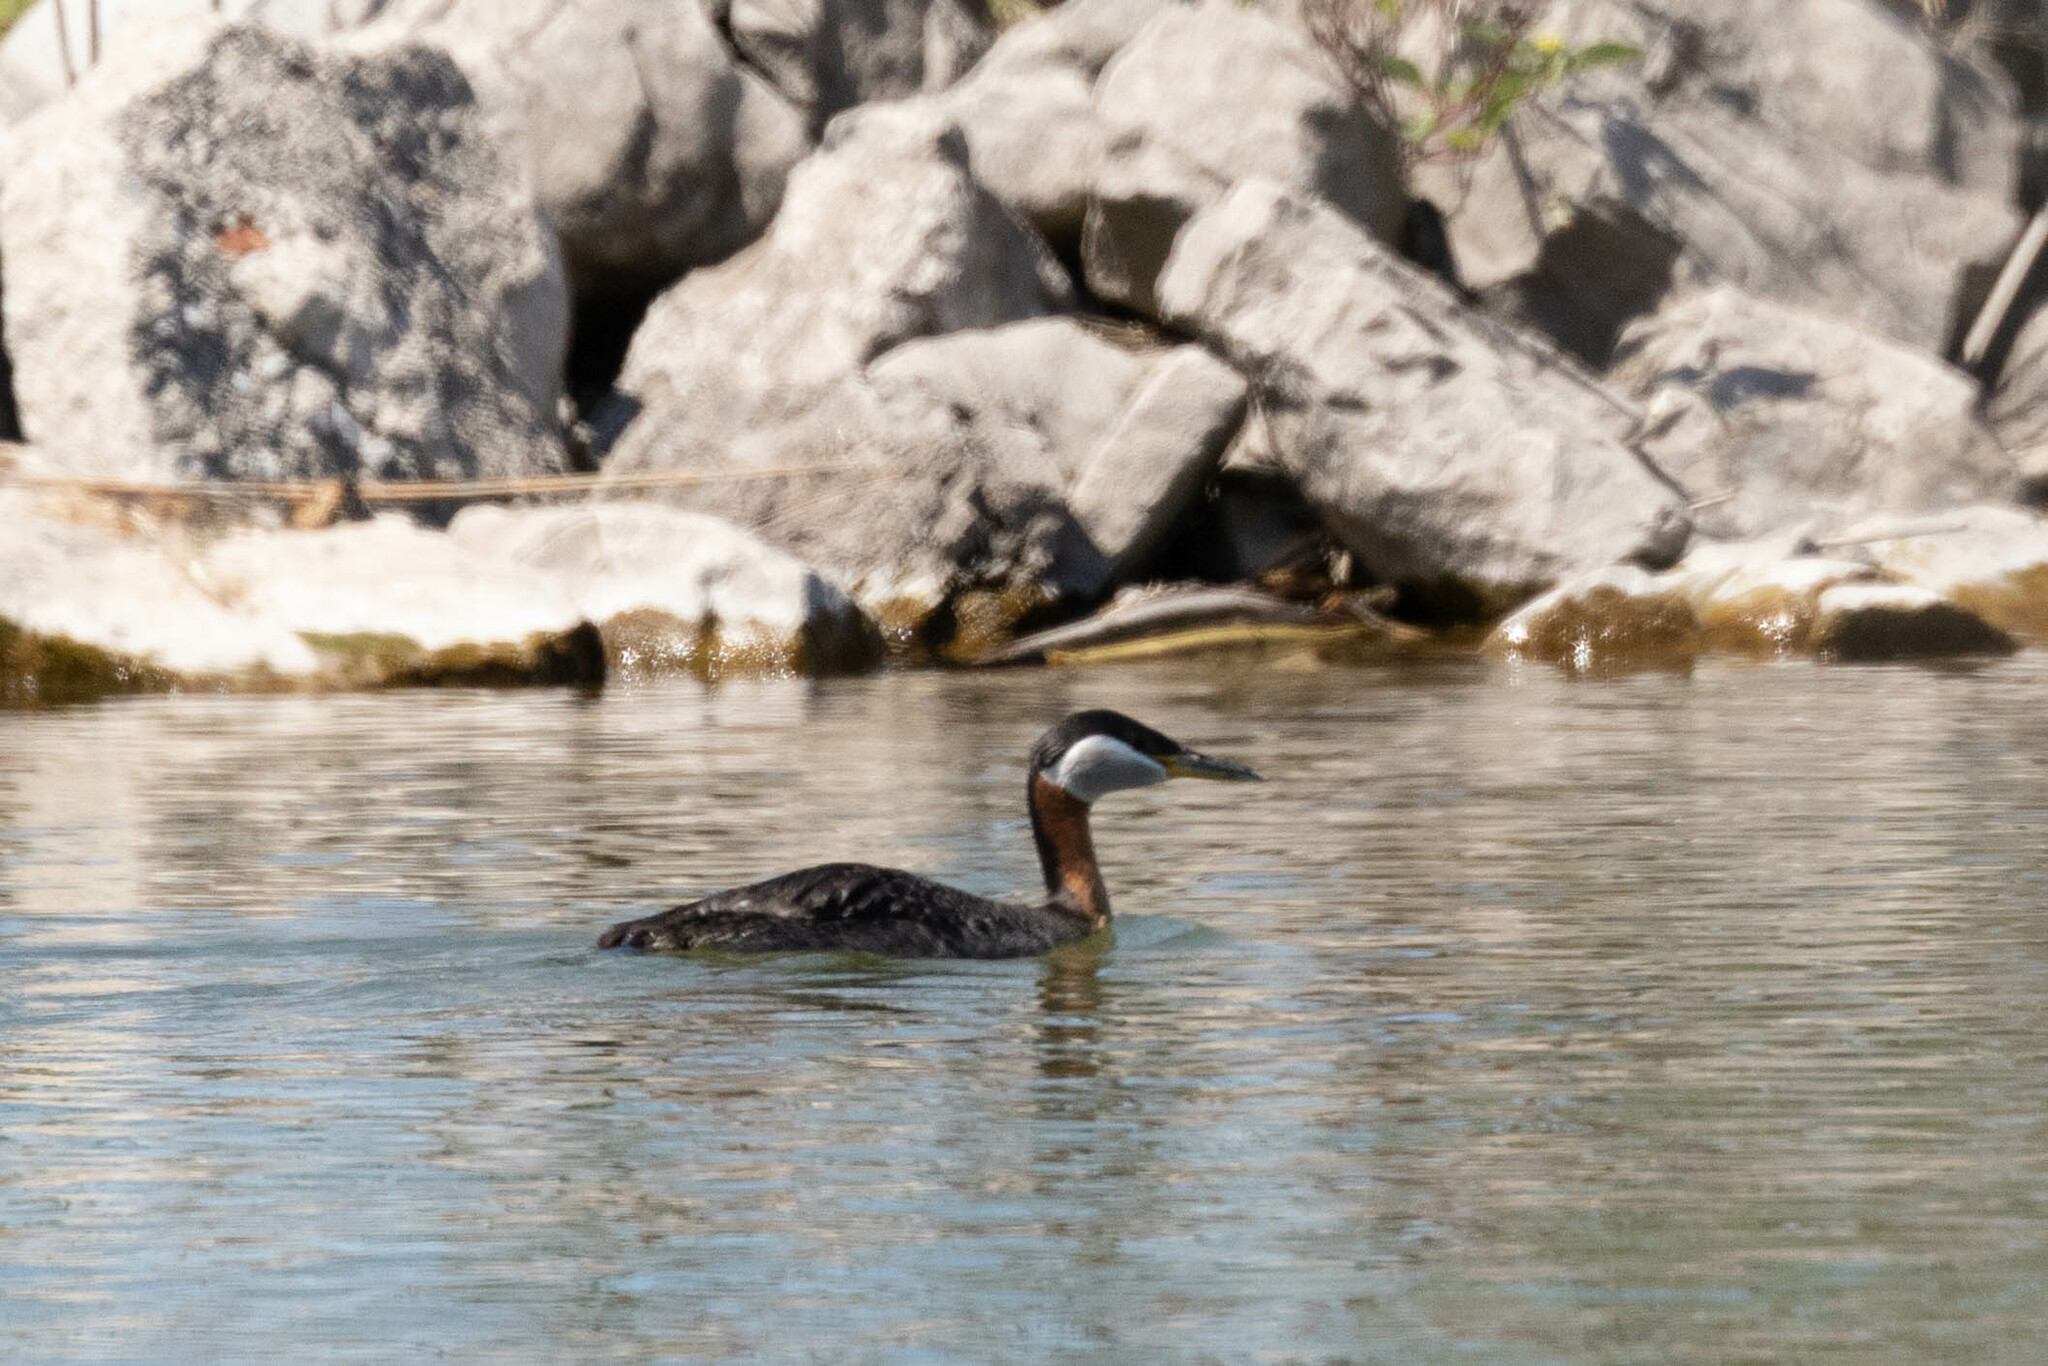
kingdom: Animalia
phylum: Chordata
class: Aves
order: Podicipediformes
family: Podicipedidae
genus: Podiceps
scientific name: Podiceps grisegena
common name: Red-necked grebe
